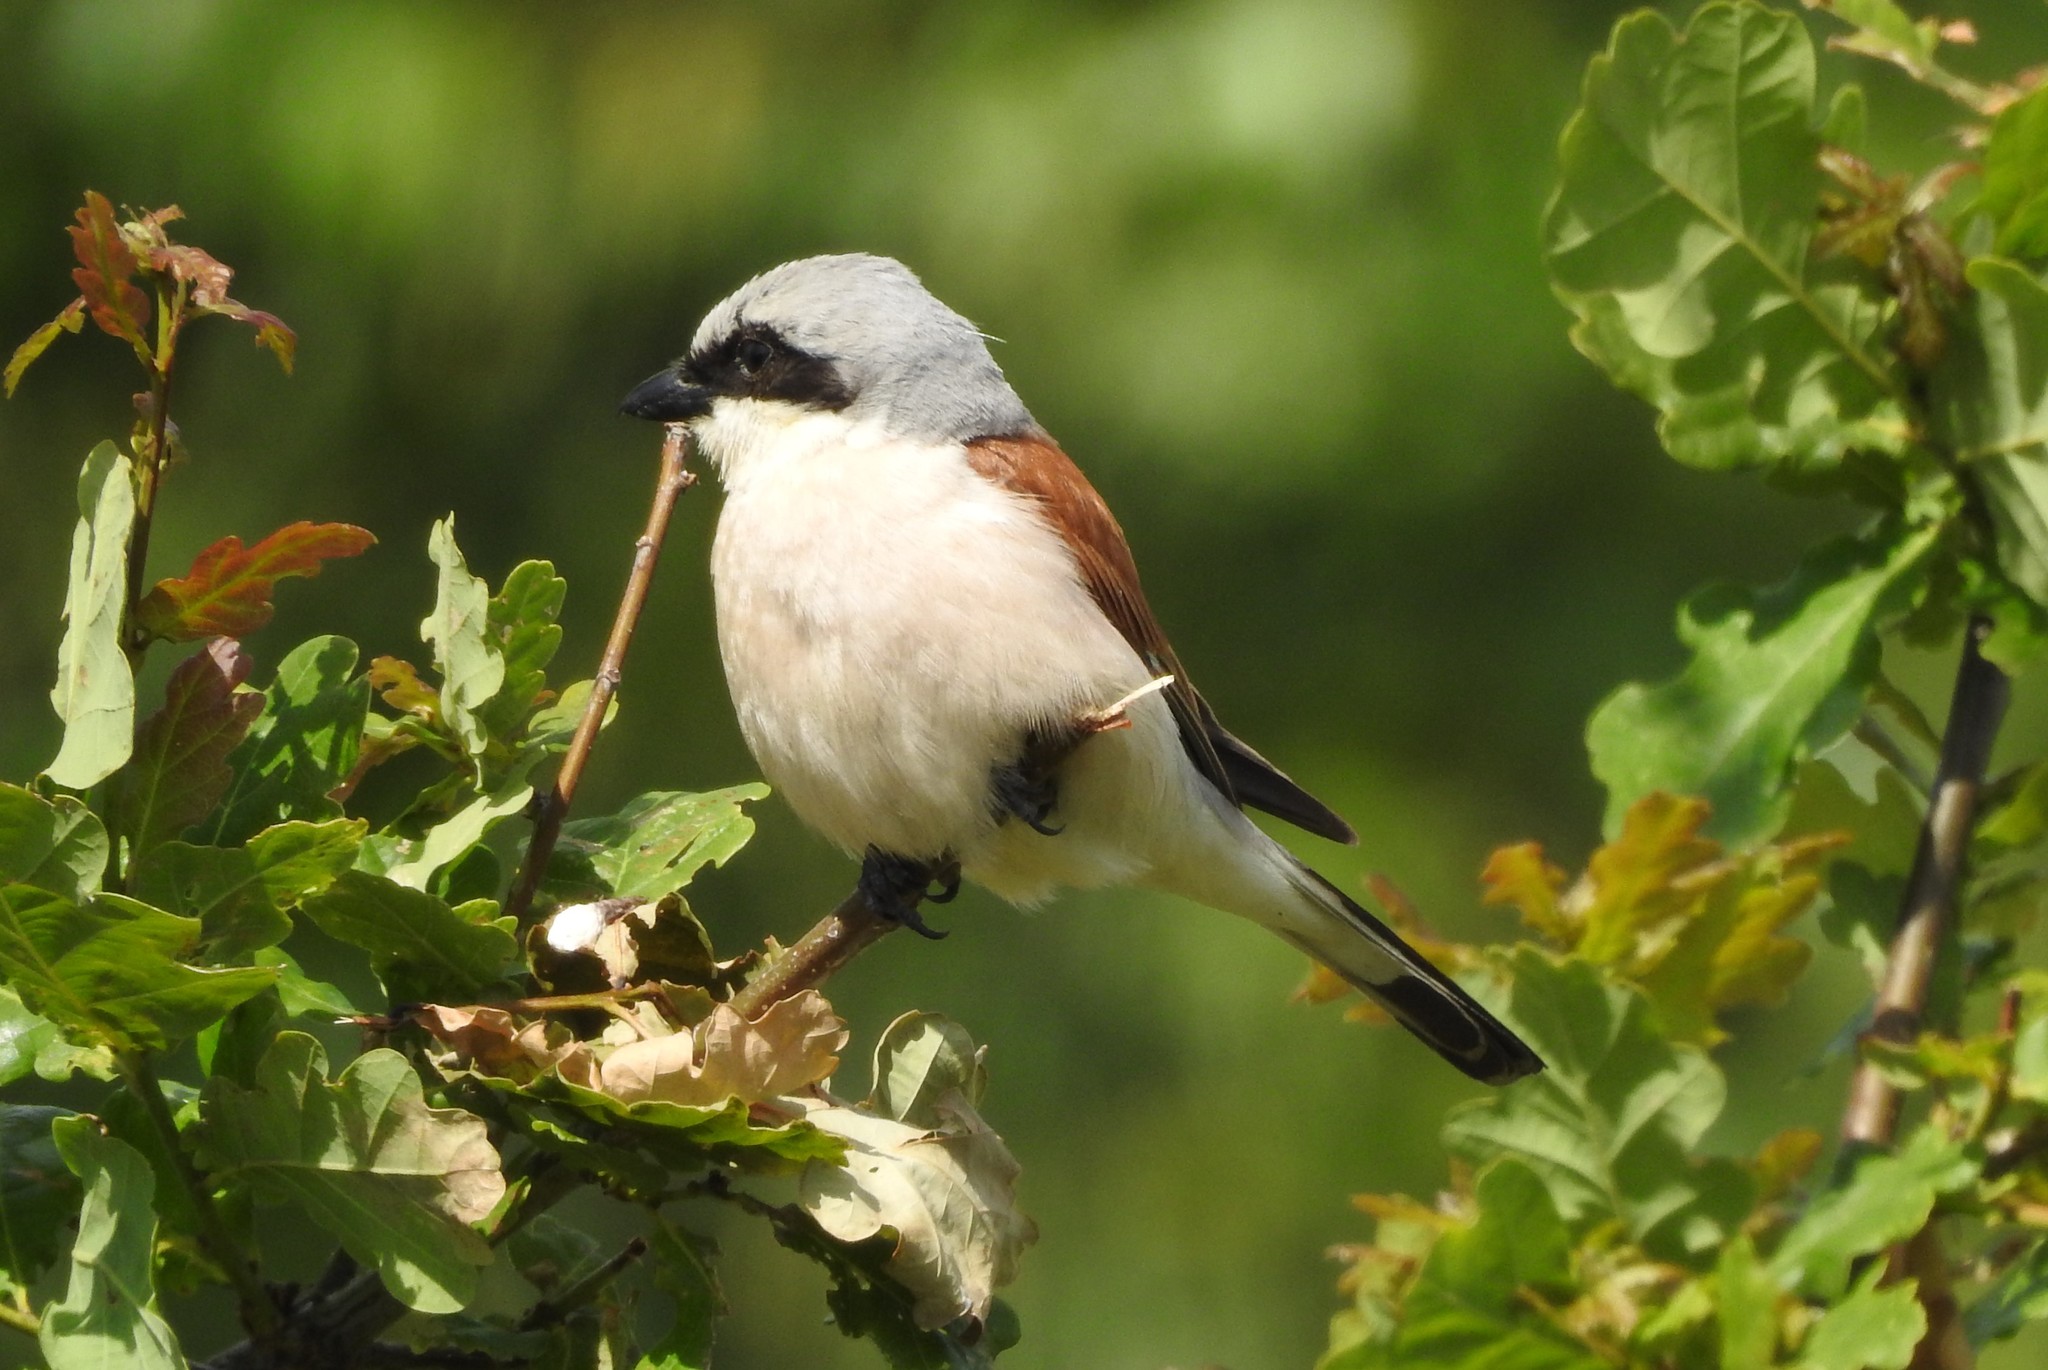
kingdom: Animalia
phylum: Chordata
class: Aves
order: Passeriformes
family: Laniidae
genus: Lanius
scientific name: Lanius collurio
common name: Red-backed shrike
